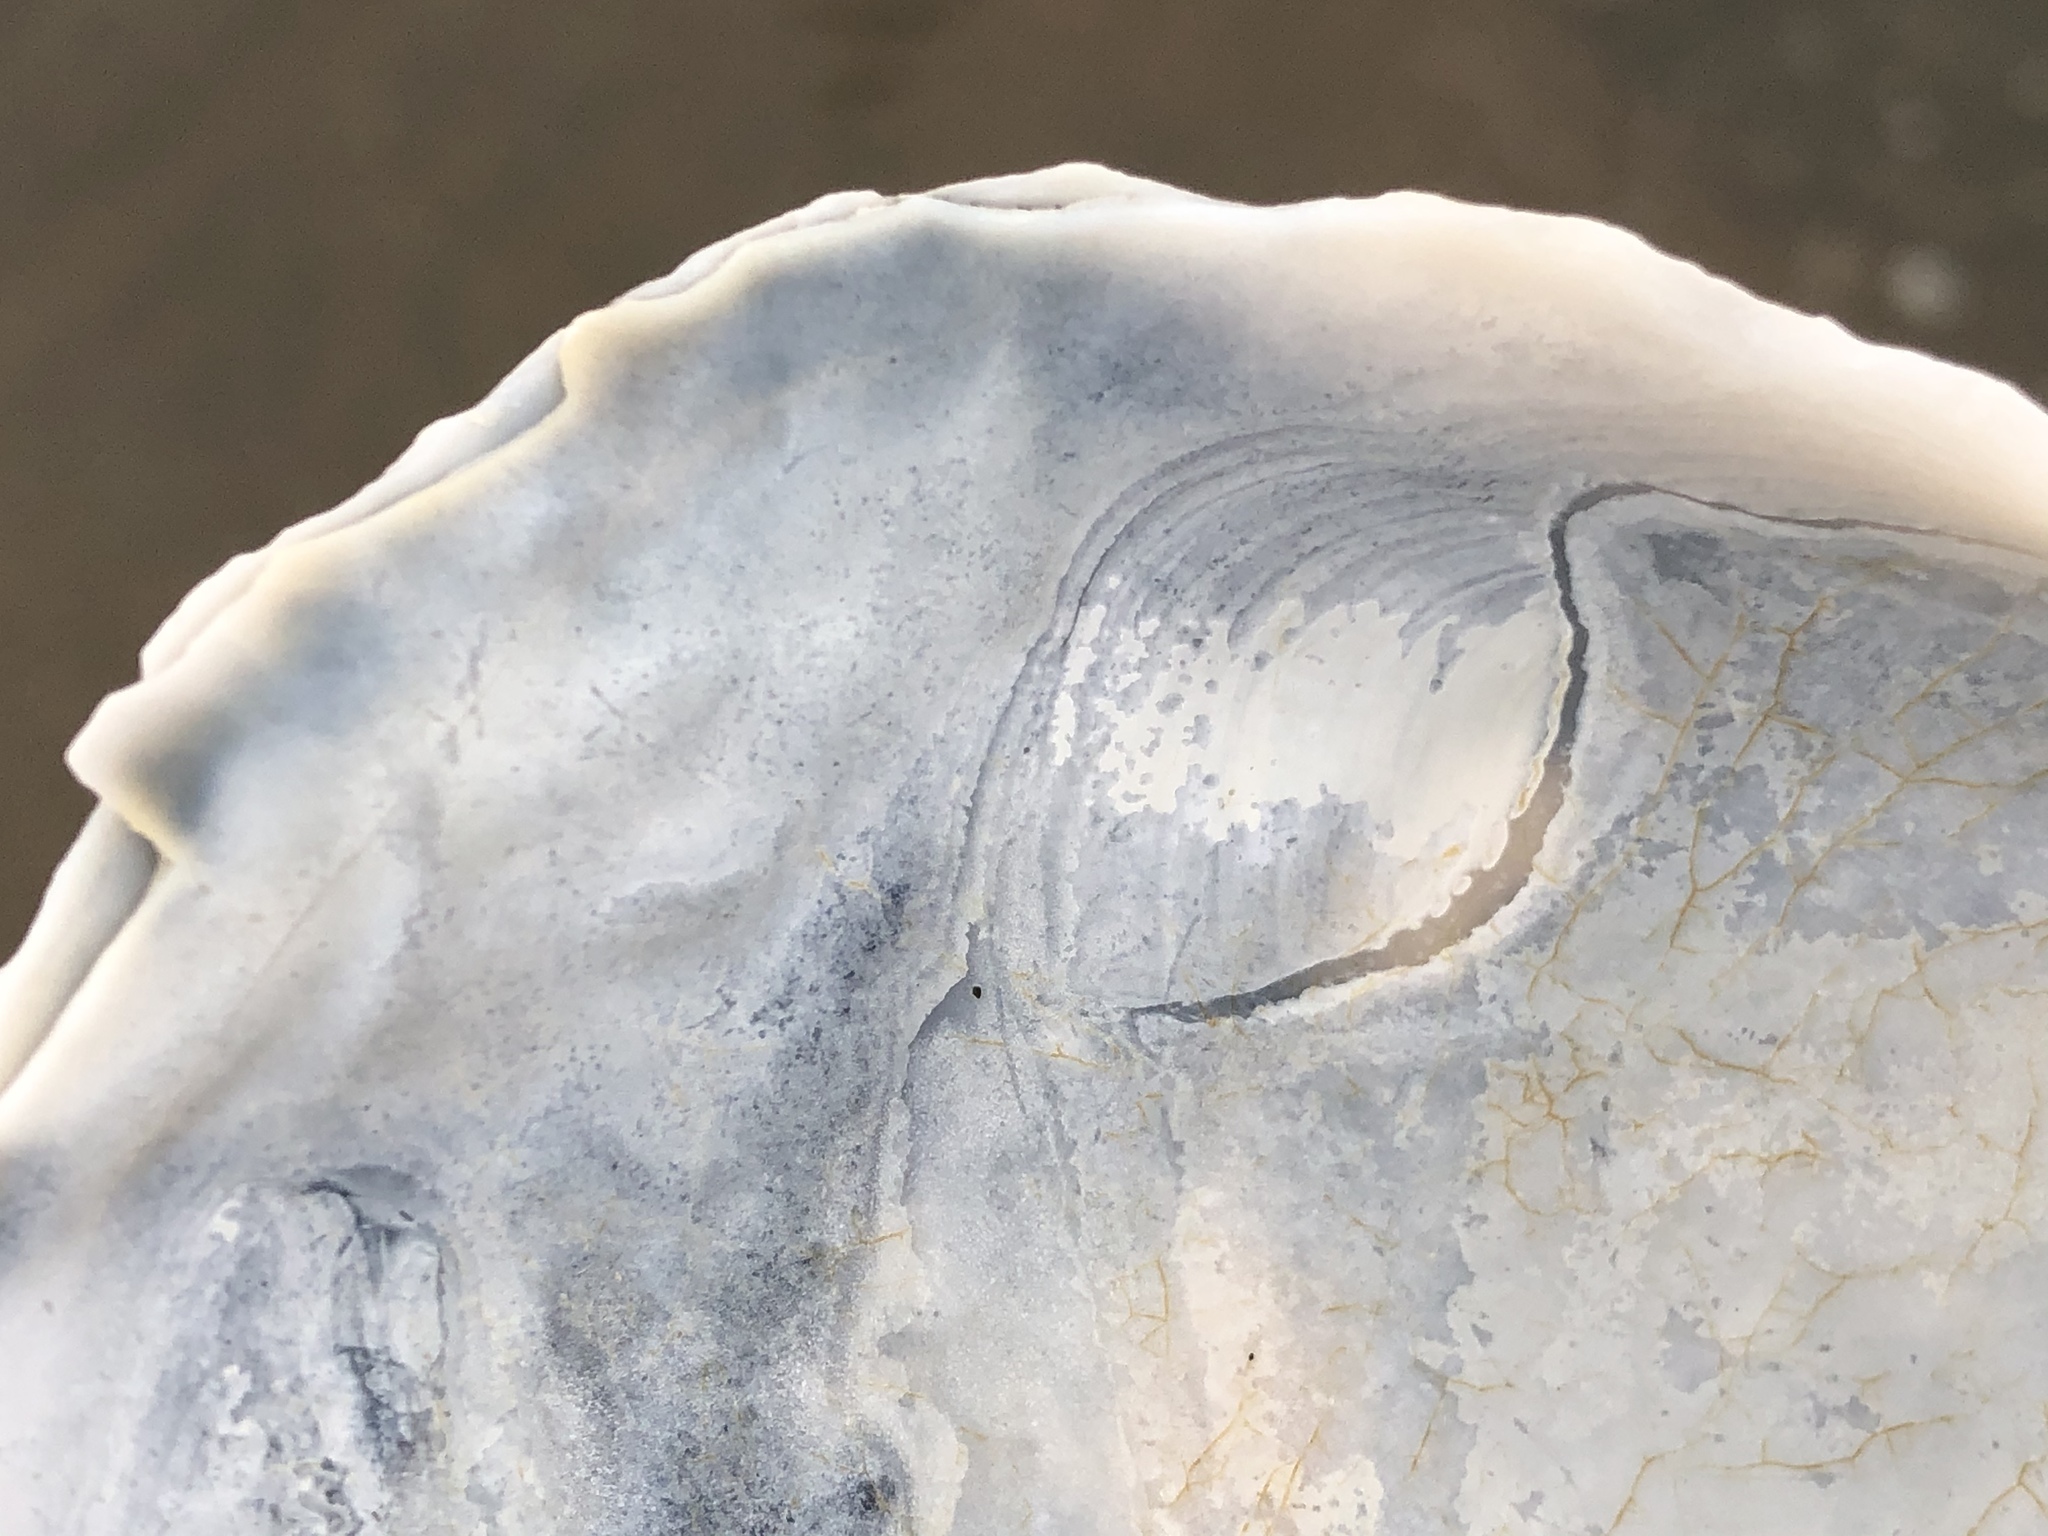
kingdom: Animalia
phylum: Mollusca
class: Bivalvia
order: Venerida
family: Mactridae
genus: Mactromeris
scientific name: Mactromeris catilliformis
